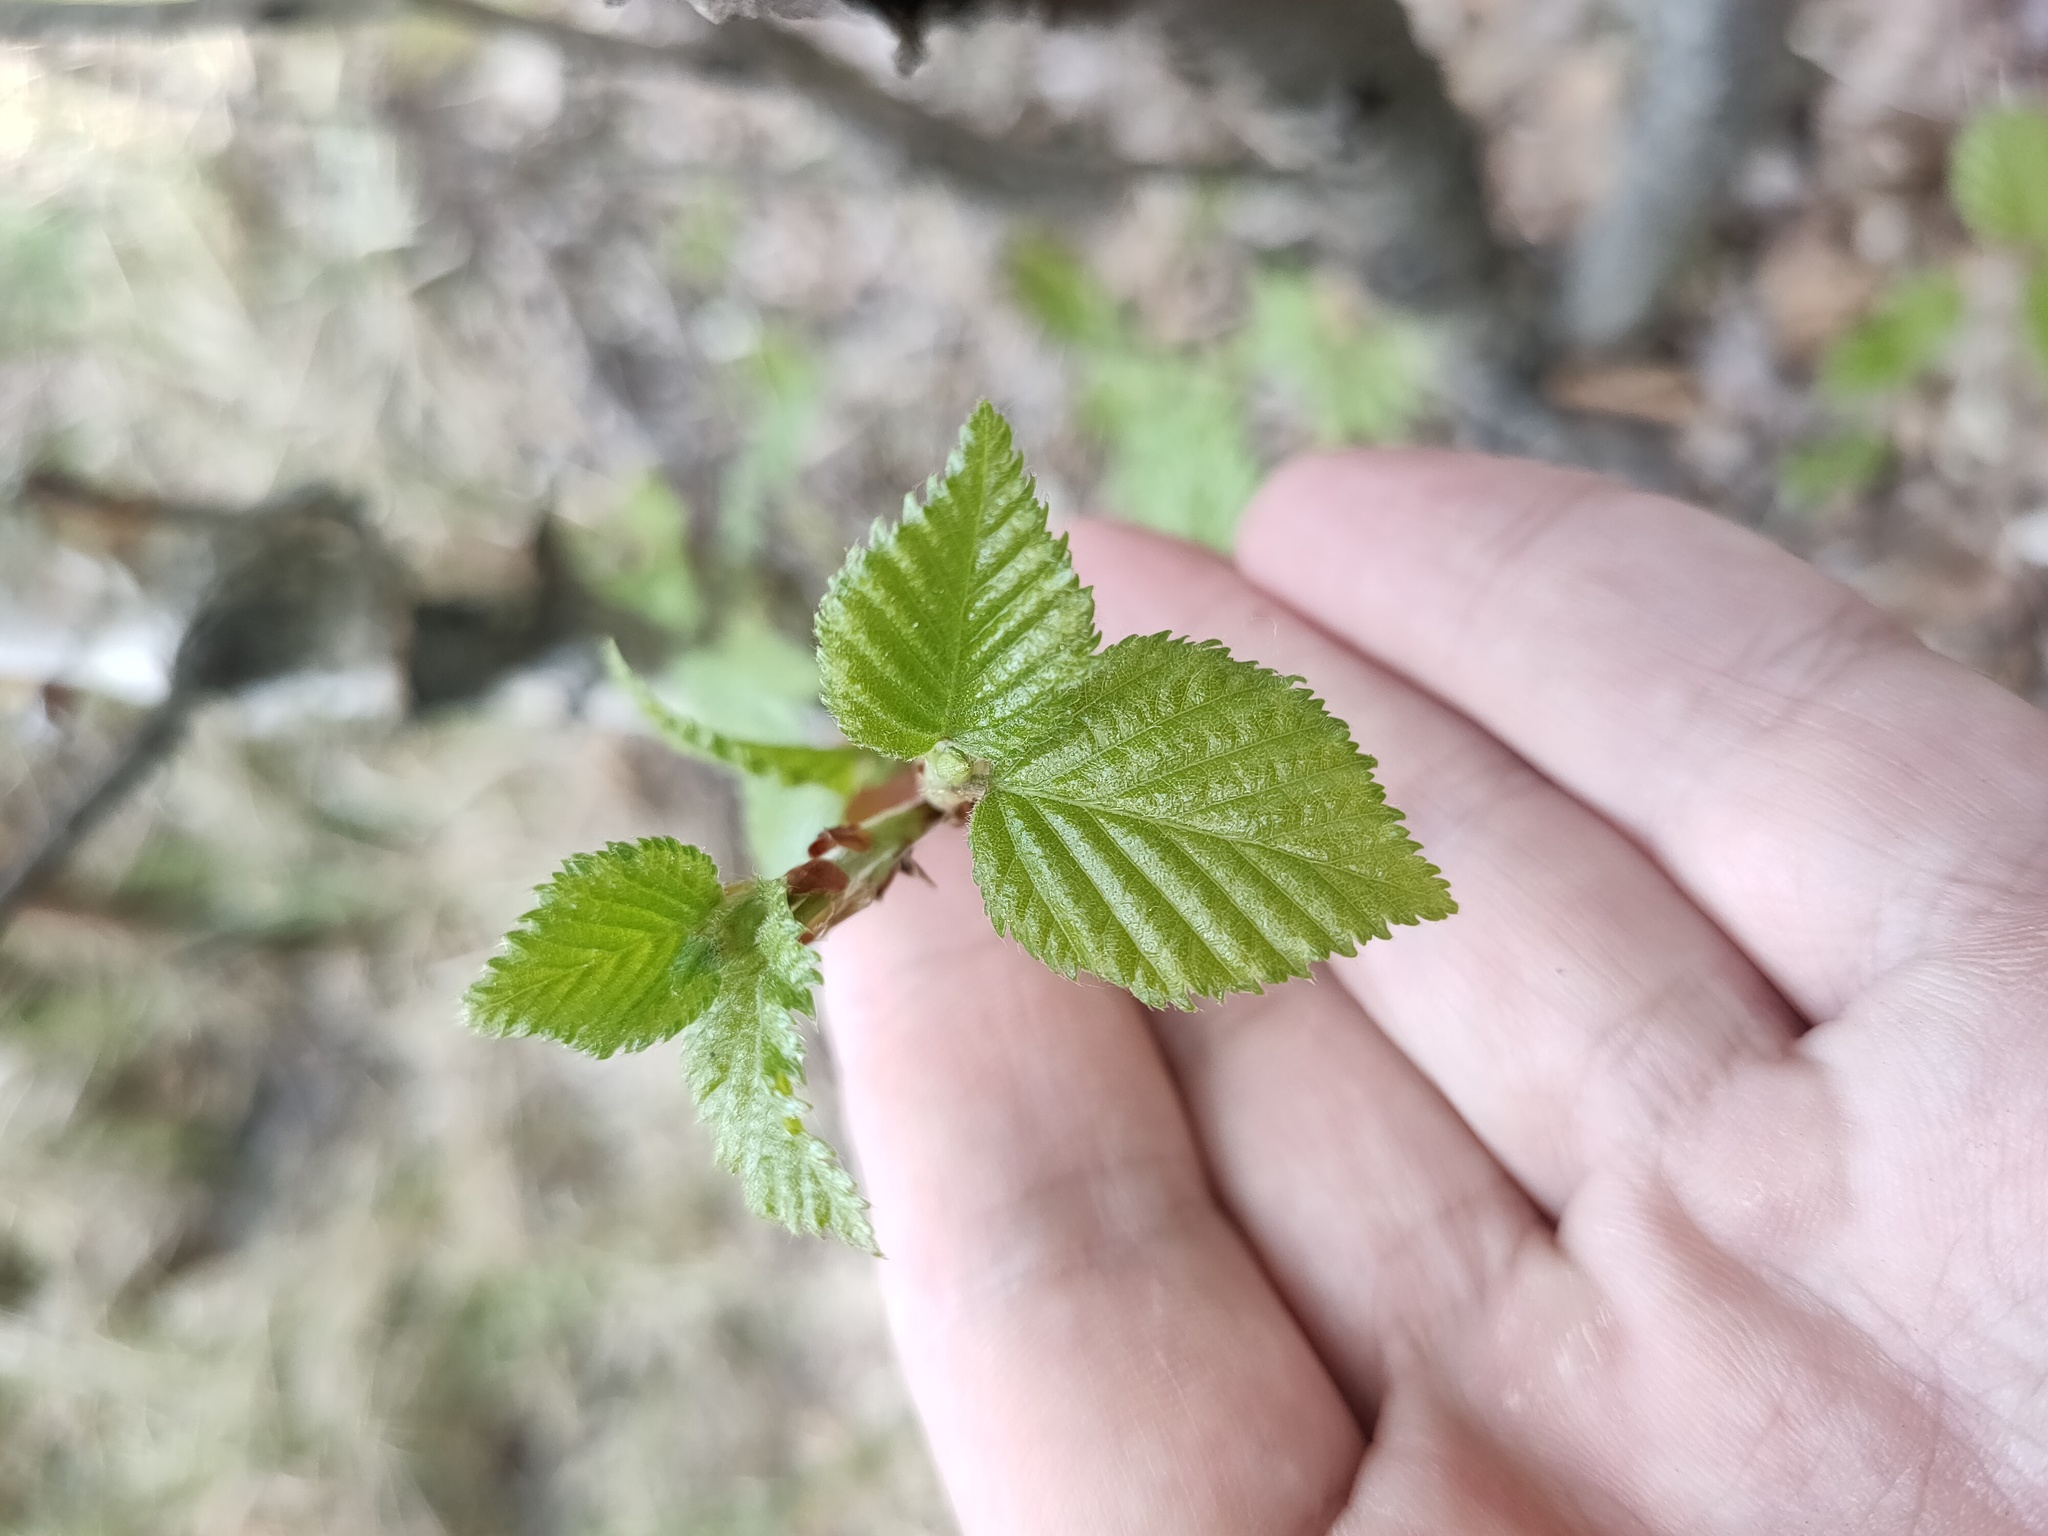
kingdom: Plantae
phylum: Tracheophyta
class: Magnoliopsida
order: Fagales
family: Betulaceae
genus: Betula
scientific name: Betula pubescens
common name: Downy birch
